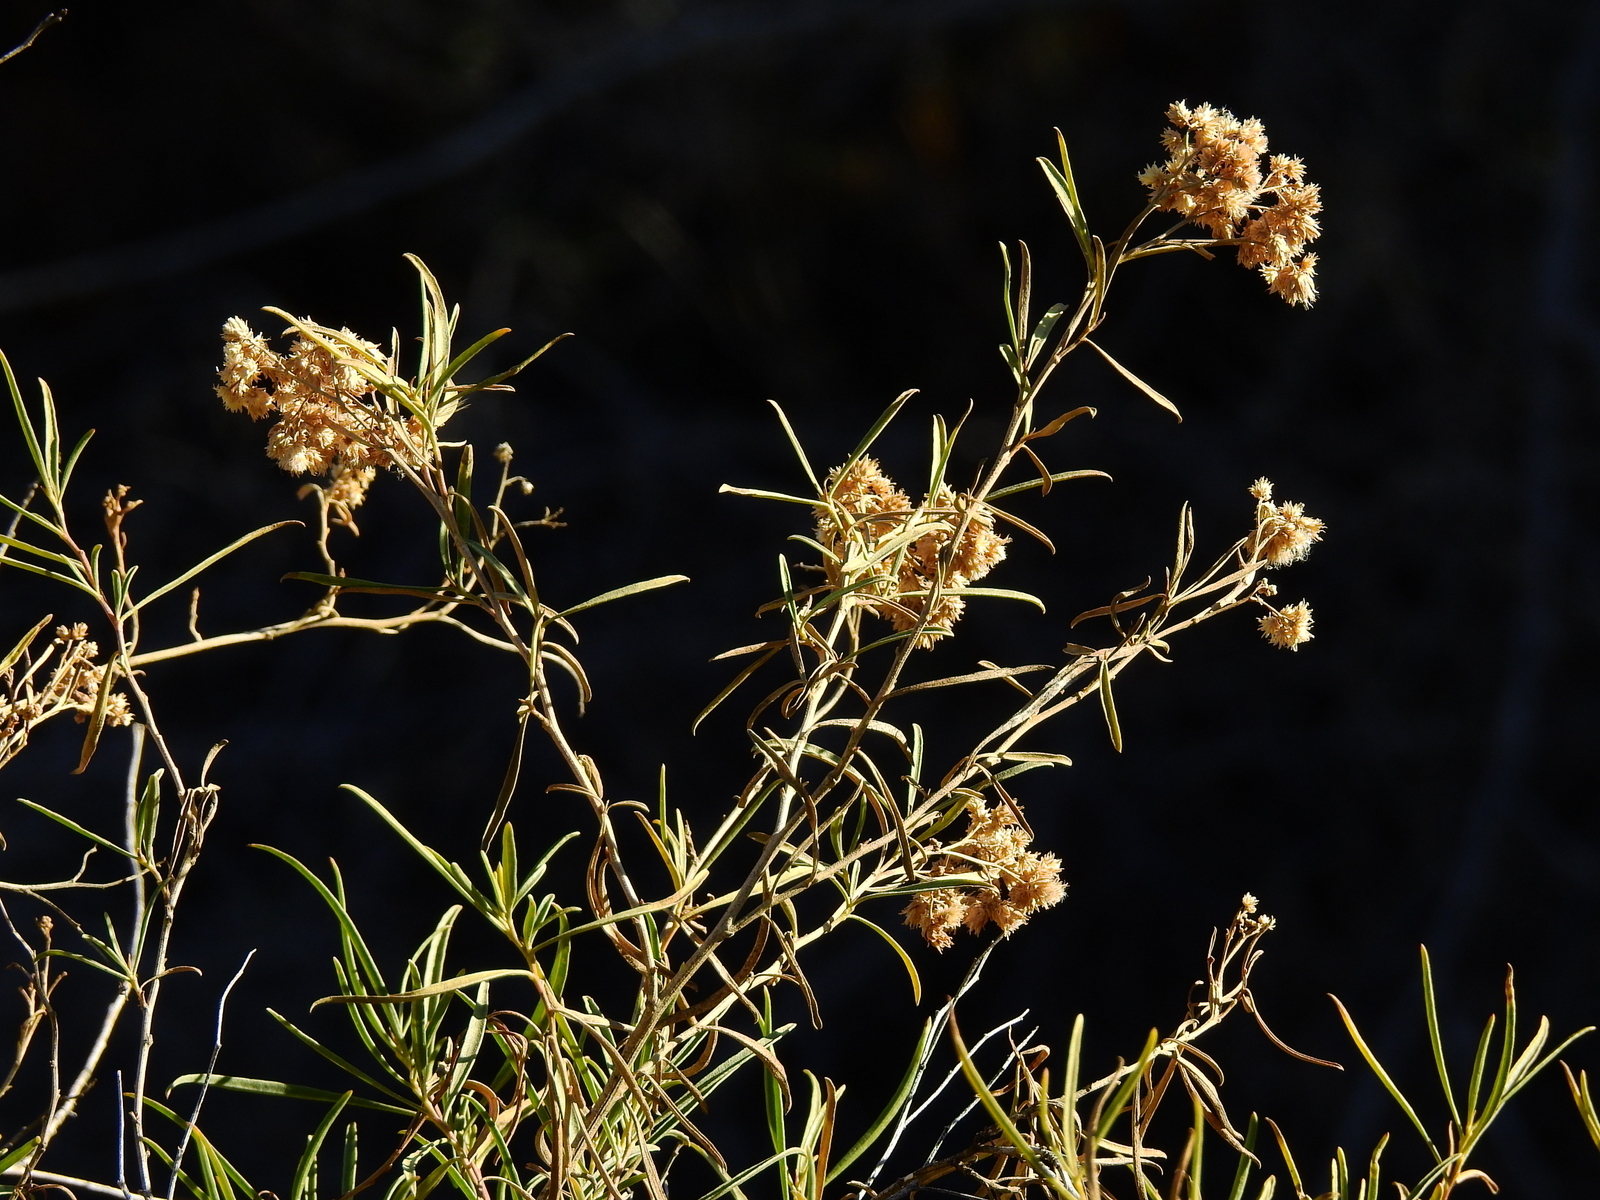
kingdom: Plantae
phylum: Tracheophyta
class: Magnoliopsida
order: Asterales
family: Asteraceae
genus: Baccharis
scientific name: Baccharis salicifolia
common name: Sticky baccharis
